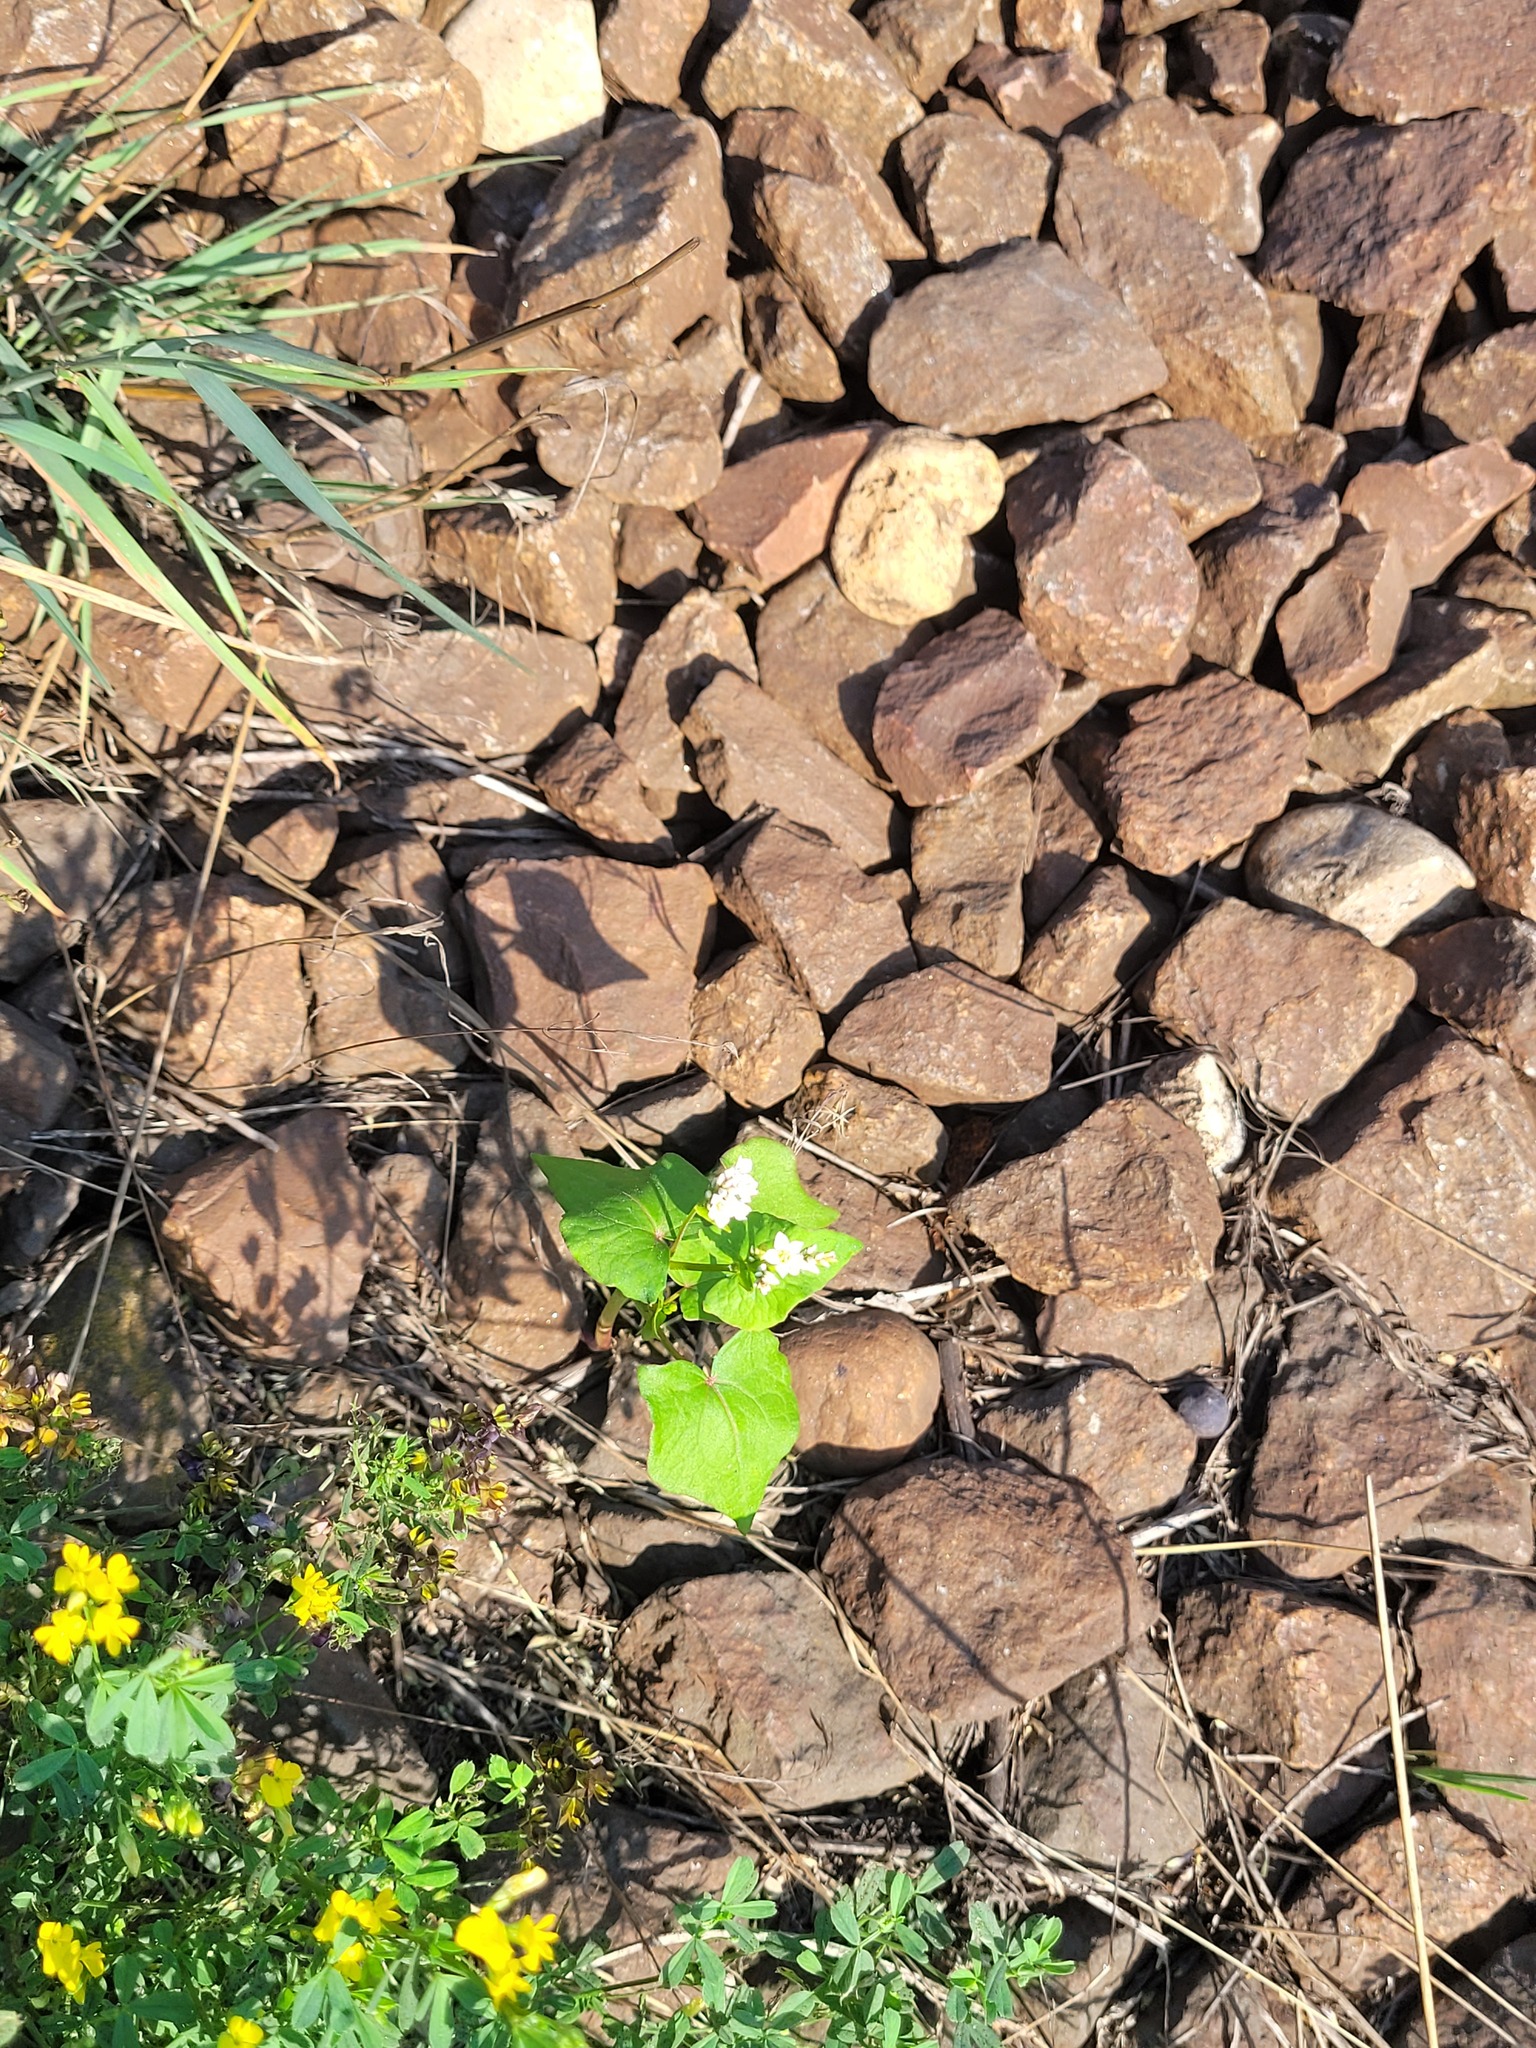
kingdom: Plantae
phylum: Tracheophyta
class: Magnoliopsida
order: Caryophyllales
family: Polygonaceae
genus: Fagopyrum
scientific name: Fagopyrum esculentum
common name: Buckwheat
